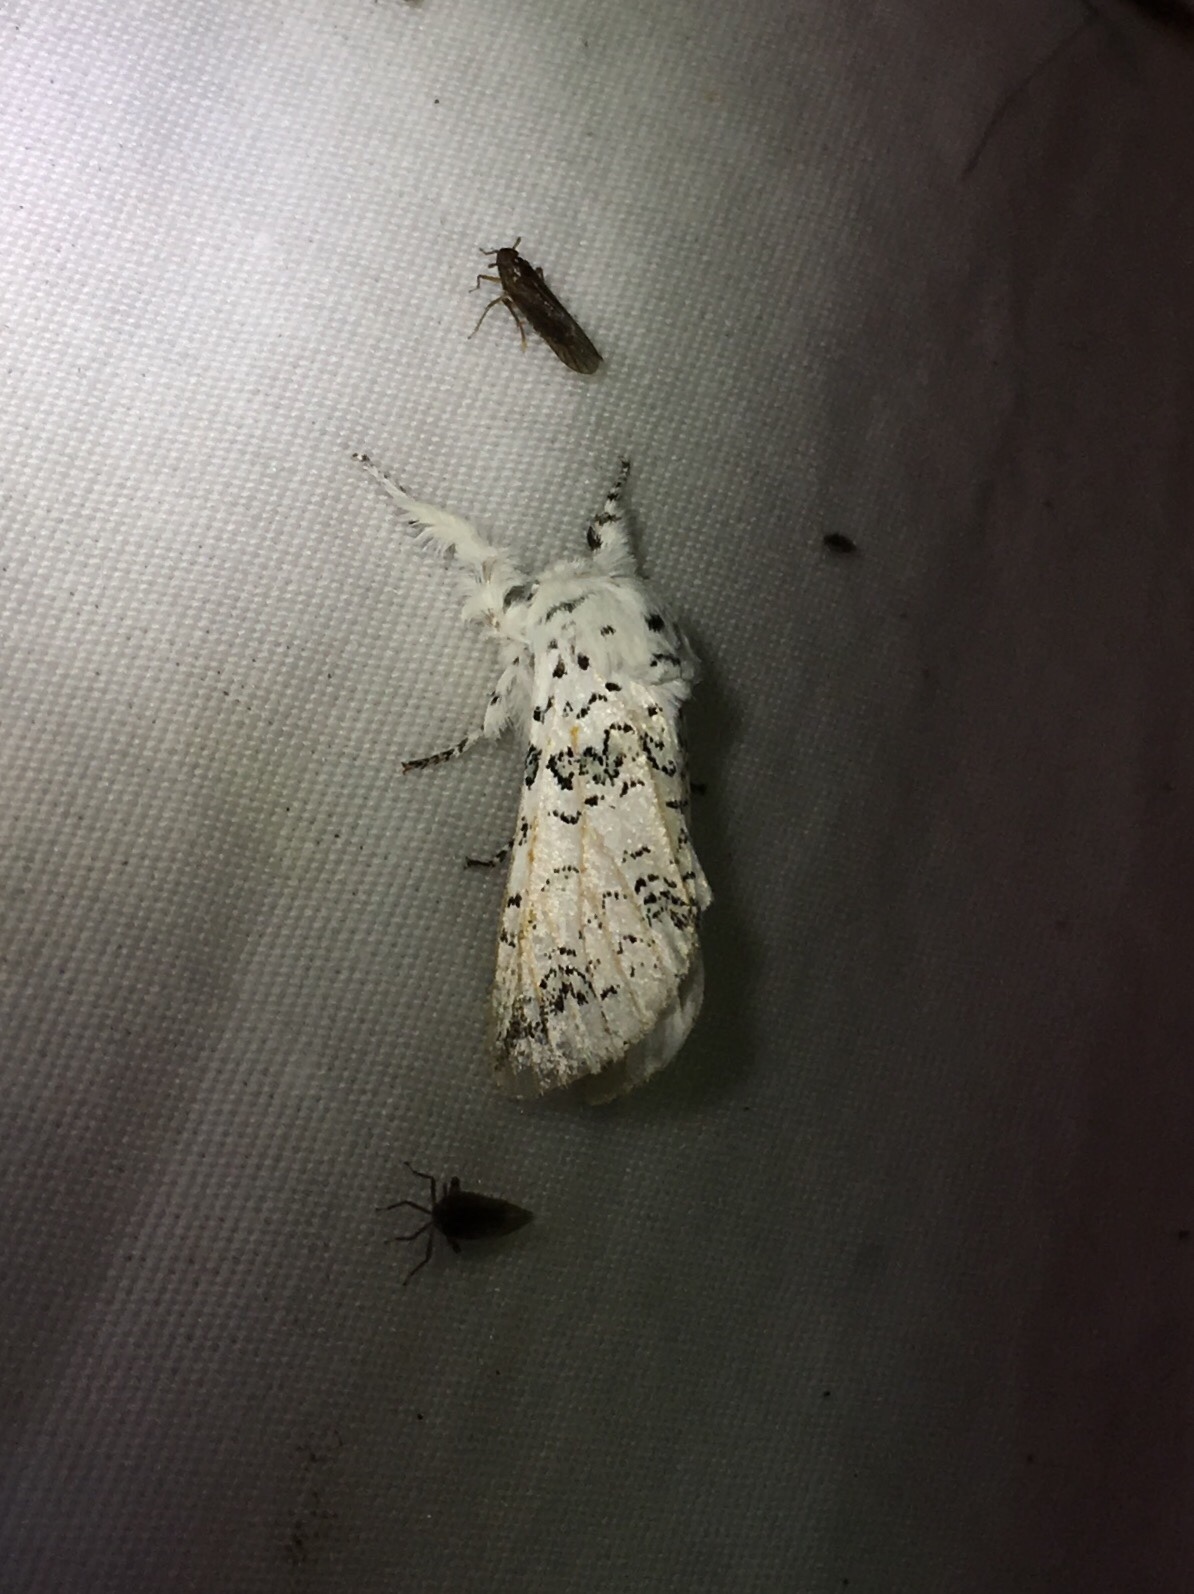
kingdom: Animalia
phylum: Arthropoda
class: Insecta
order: Lepidoptera
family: Notodontidae
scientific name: Notodontidae
